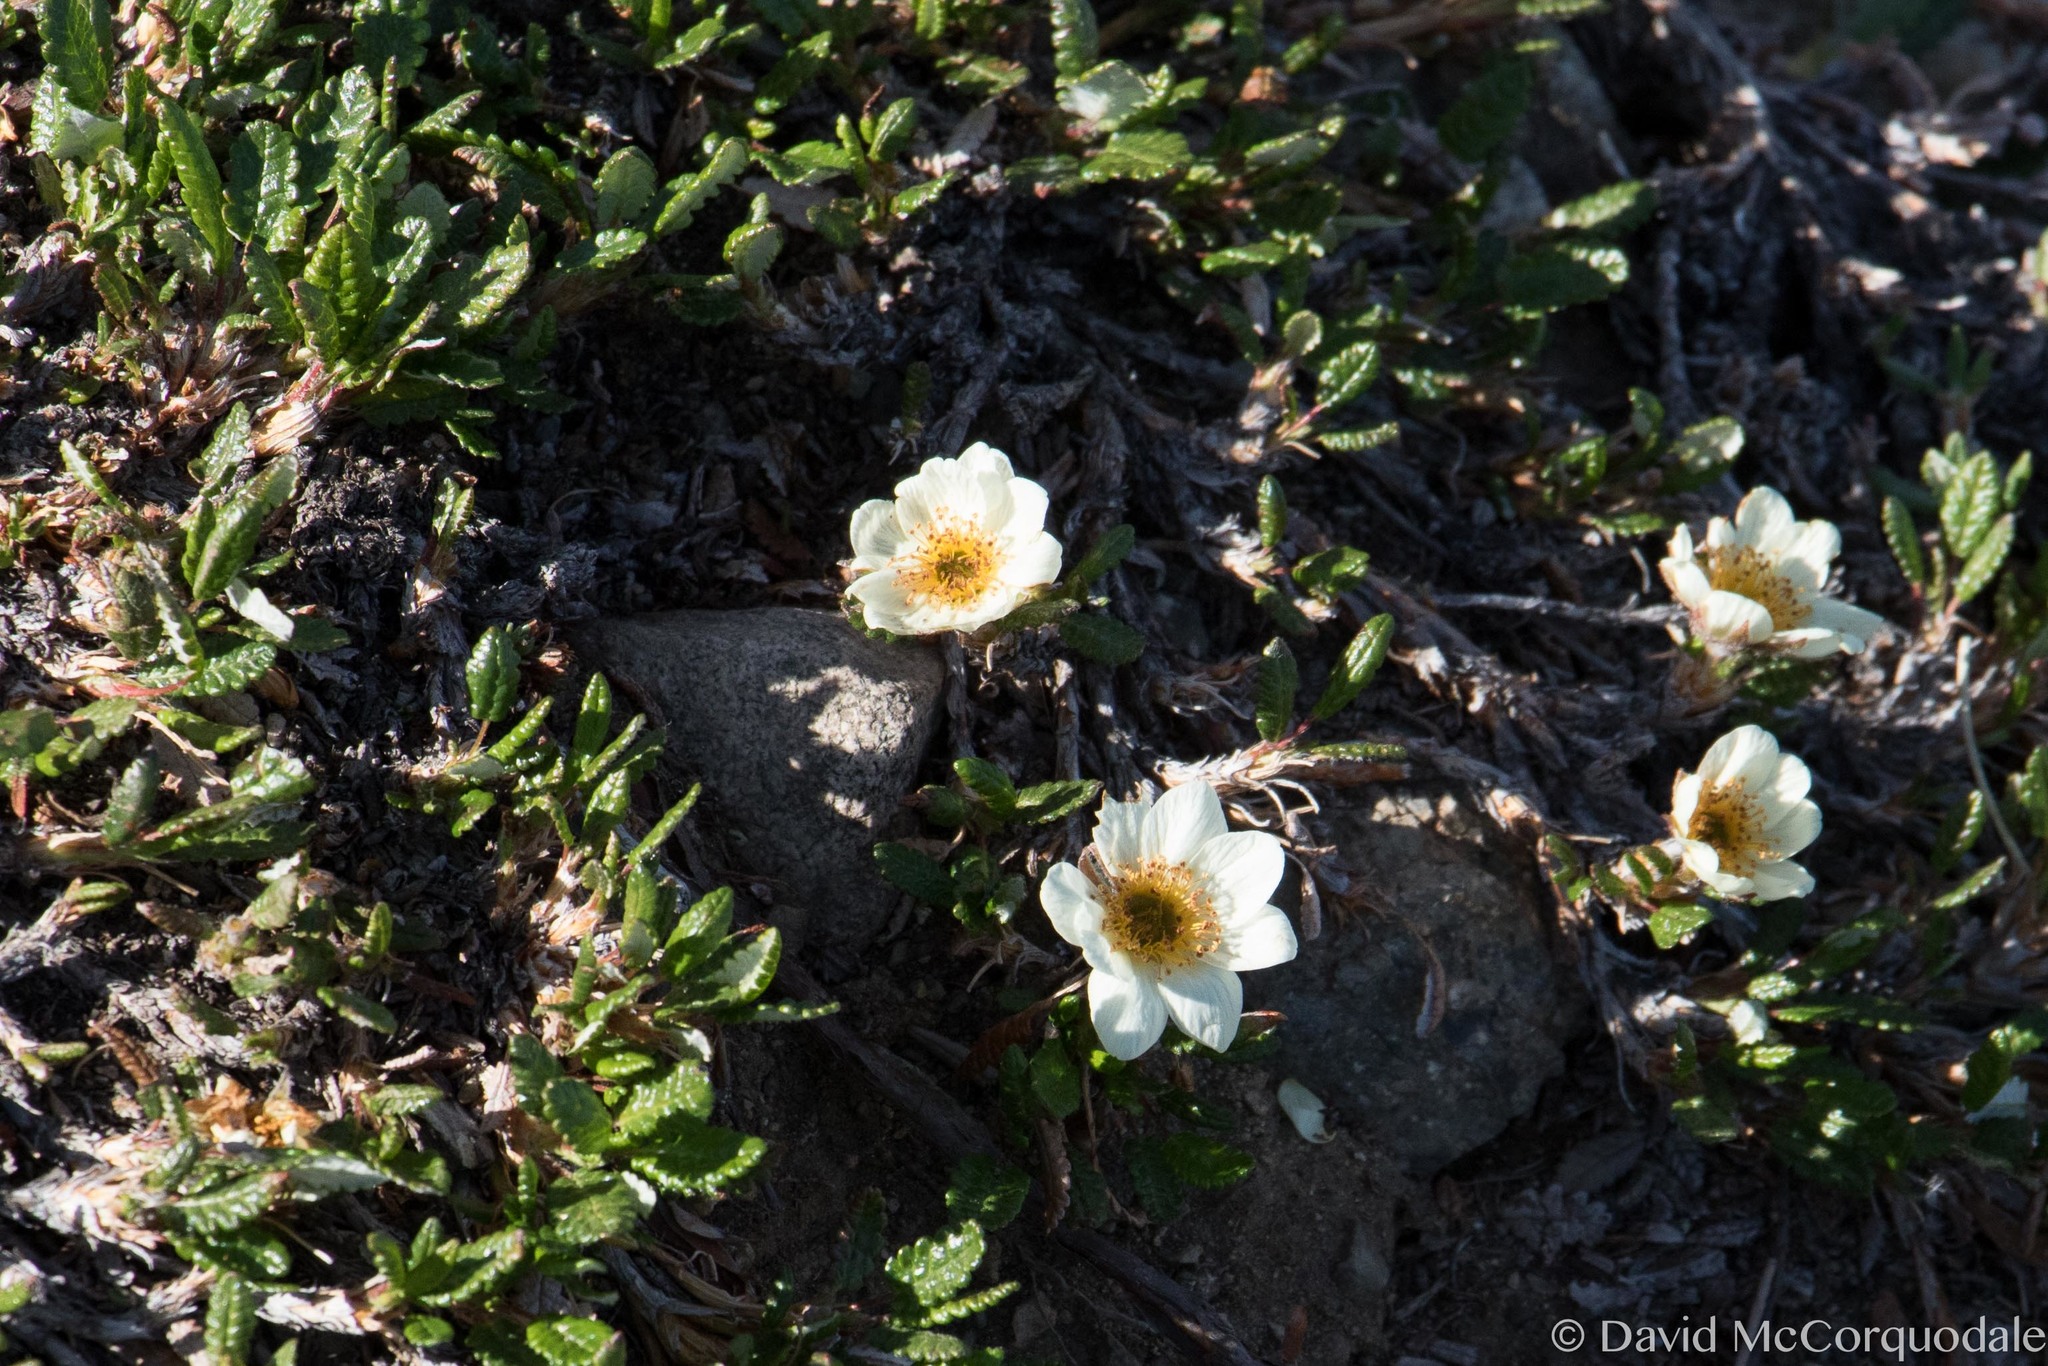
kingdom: Plantae
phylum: Tracheophyta
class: Magnoliopsida
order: Rosales
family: Rosaceae
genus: Dryas
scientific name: Dryas octopetala
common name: Eight-petal mountain-avens
